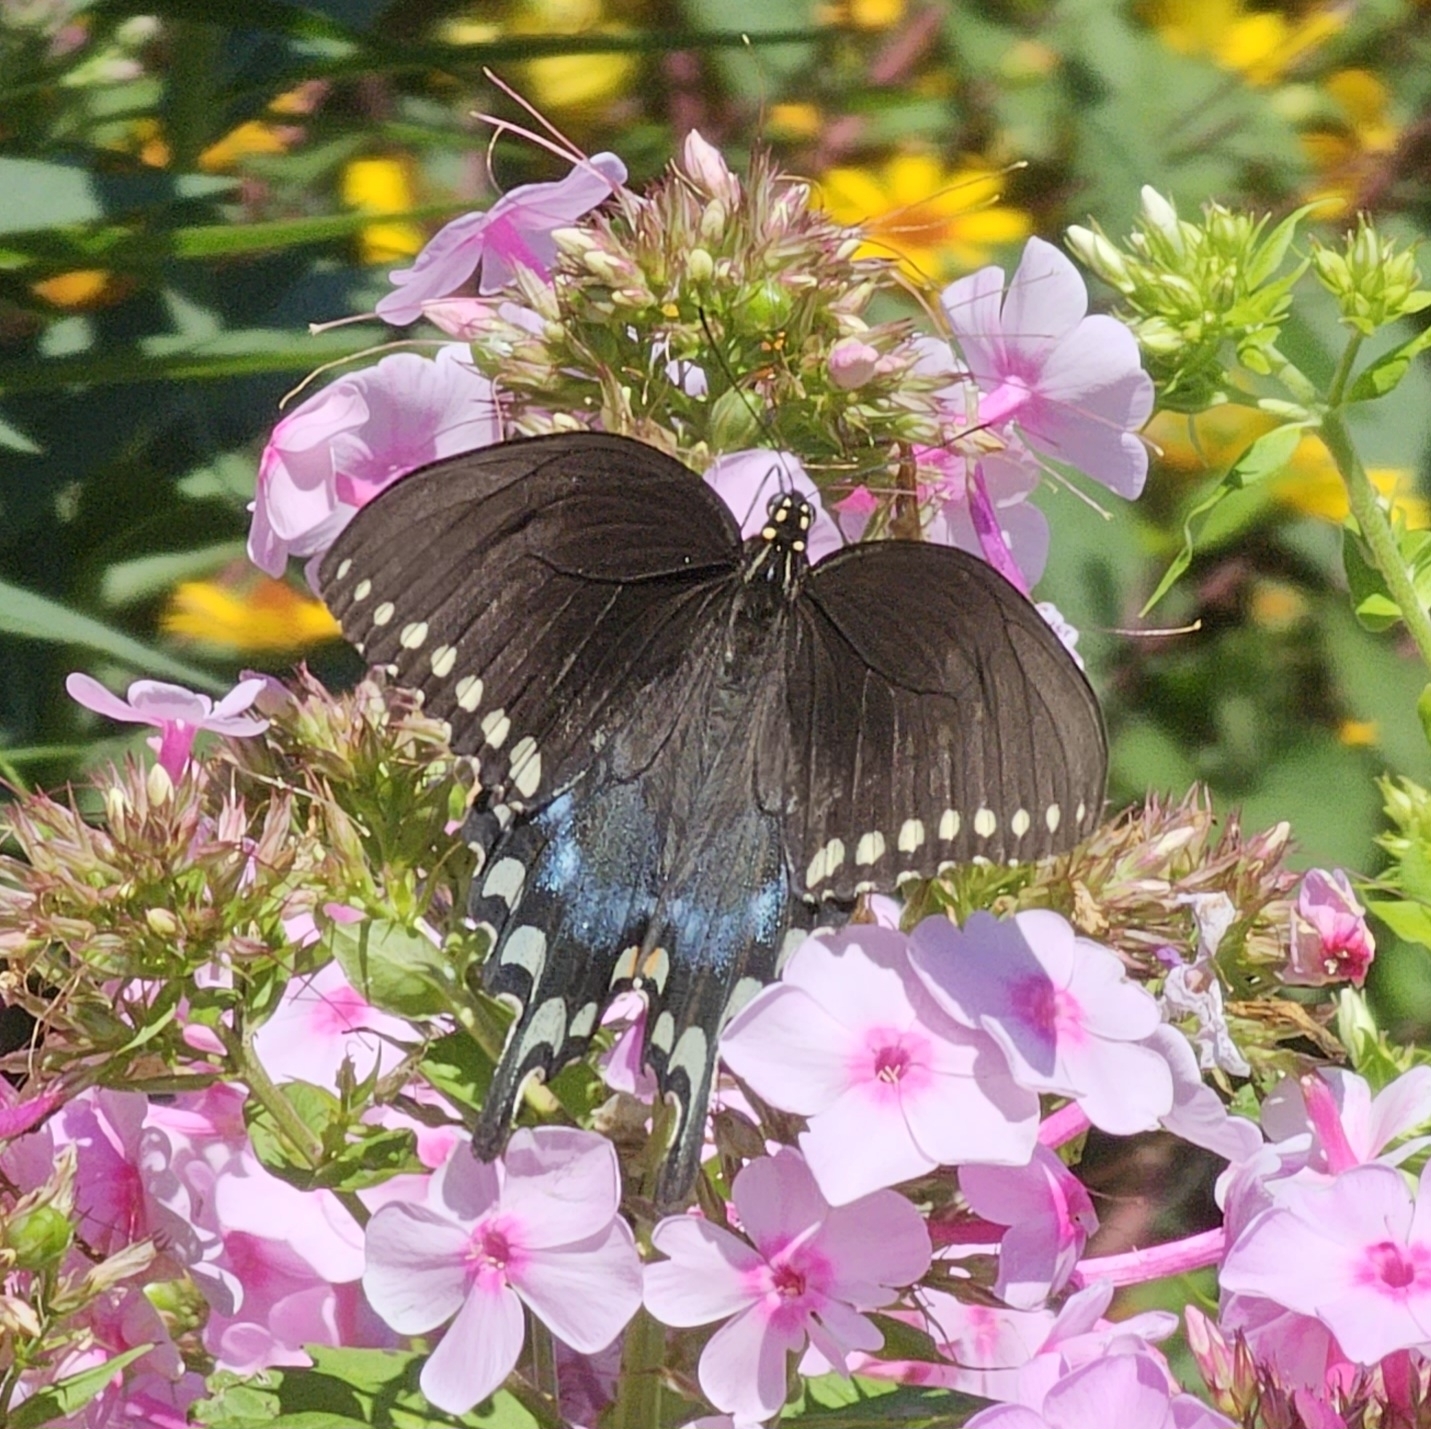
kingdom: Animalia
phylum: Arthropoda
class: Insecta
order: Lepidoptera
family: Papilionidae
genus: Papilio
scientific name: Papilio troilus
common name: Spicebush swallowtail
